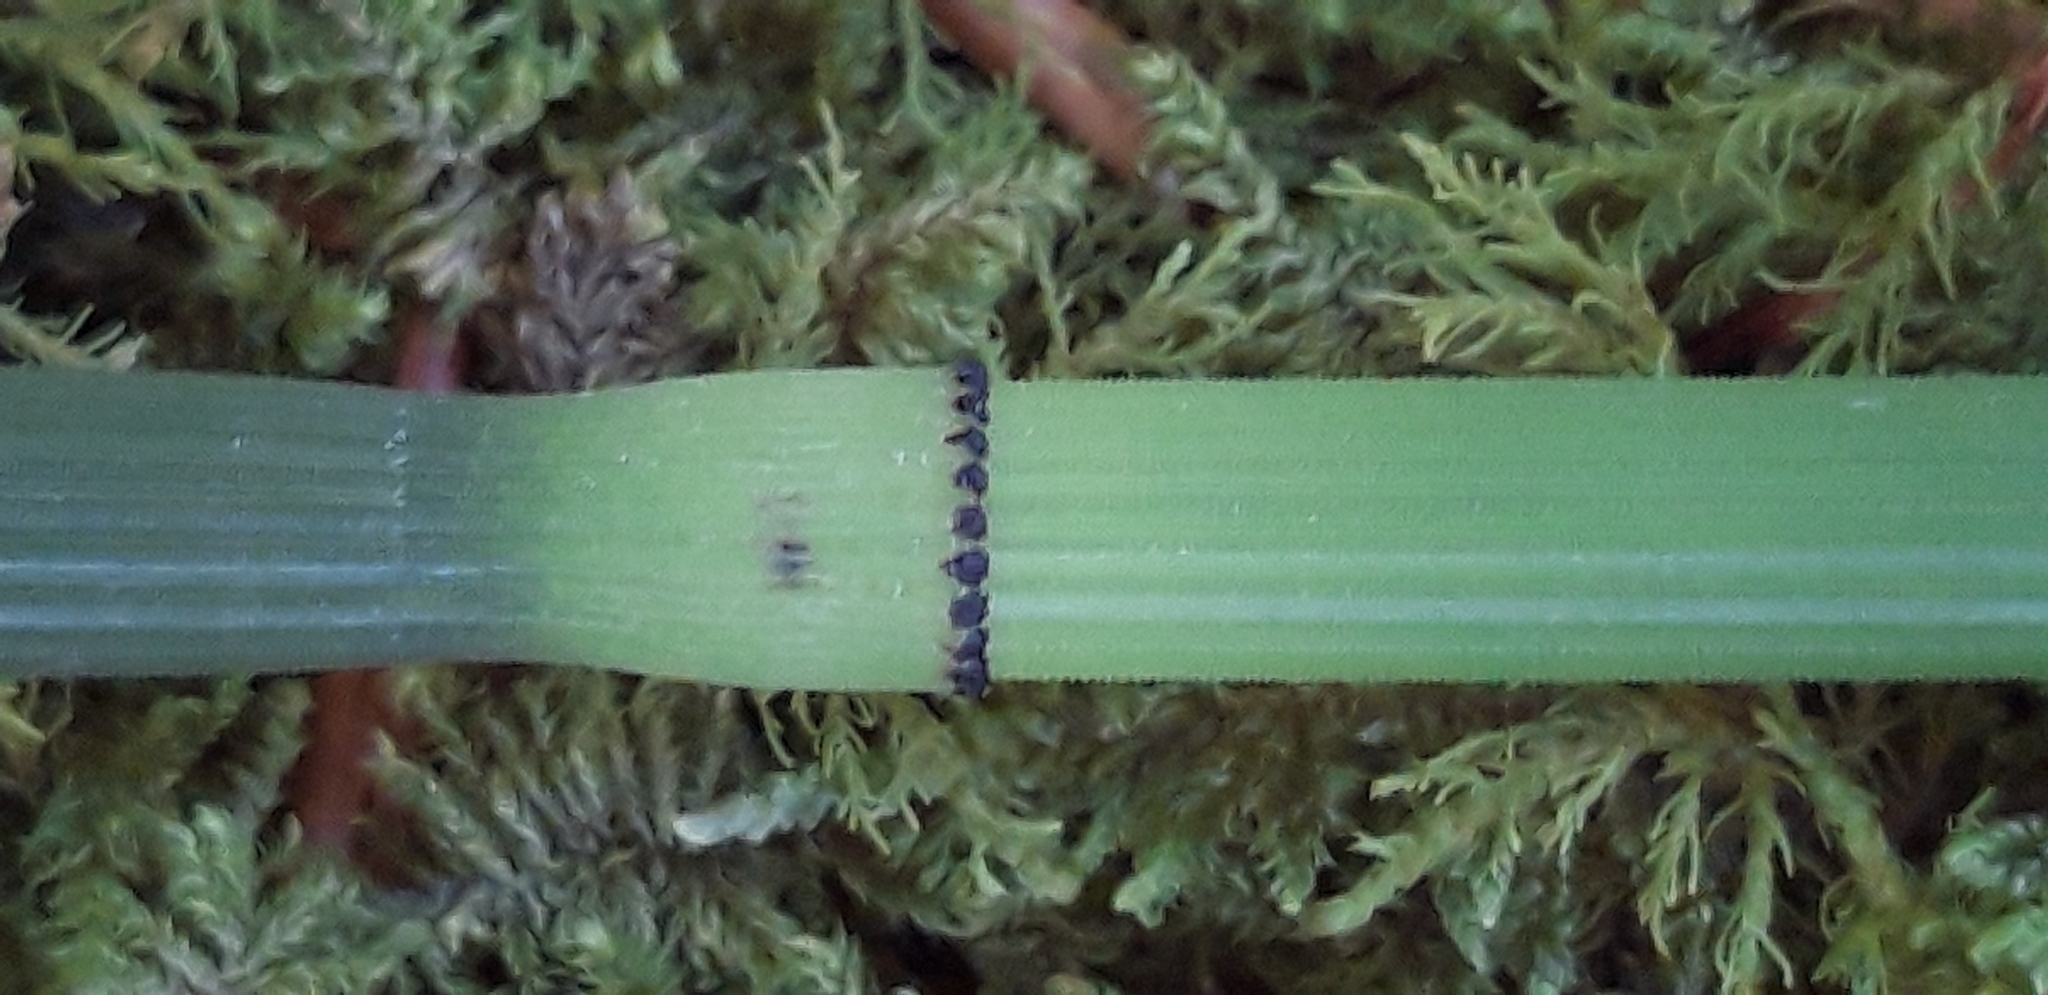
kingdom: Plantae
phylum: Tracheophyta
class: Polypodiopsida
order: Equisetales
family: Equisetaceae
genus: Equisetum
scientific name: Equisetum hyemale
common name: Rough horsetail
